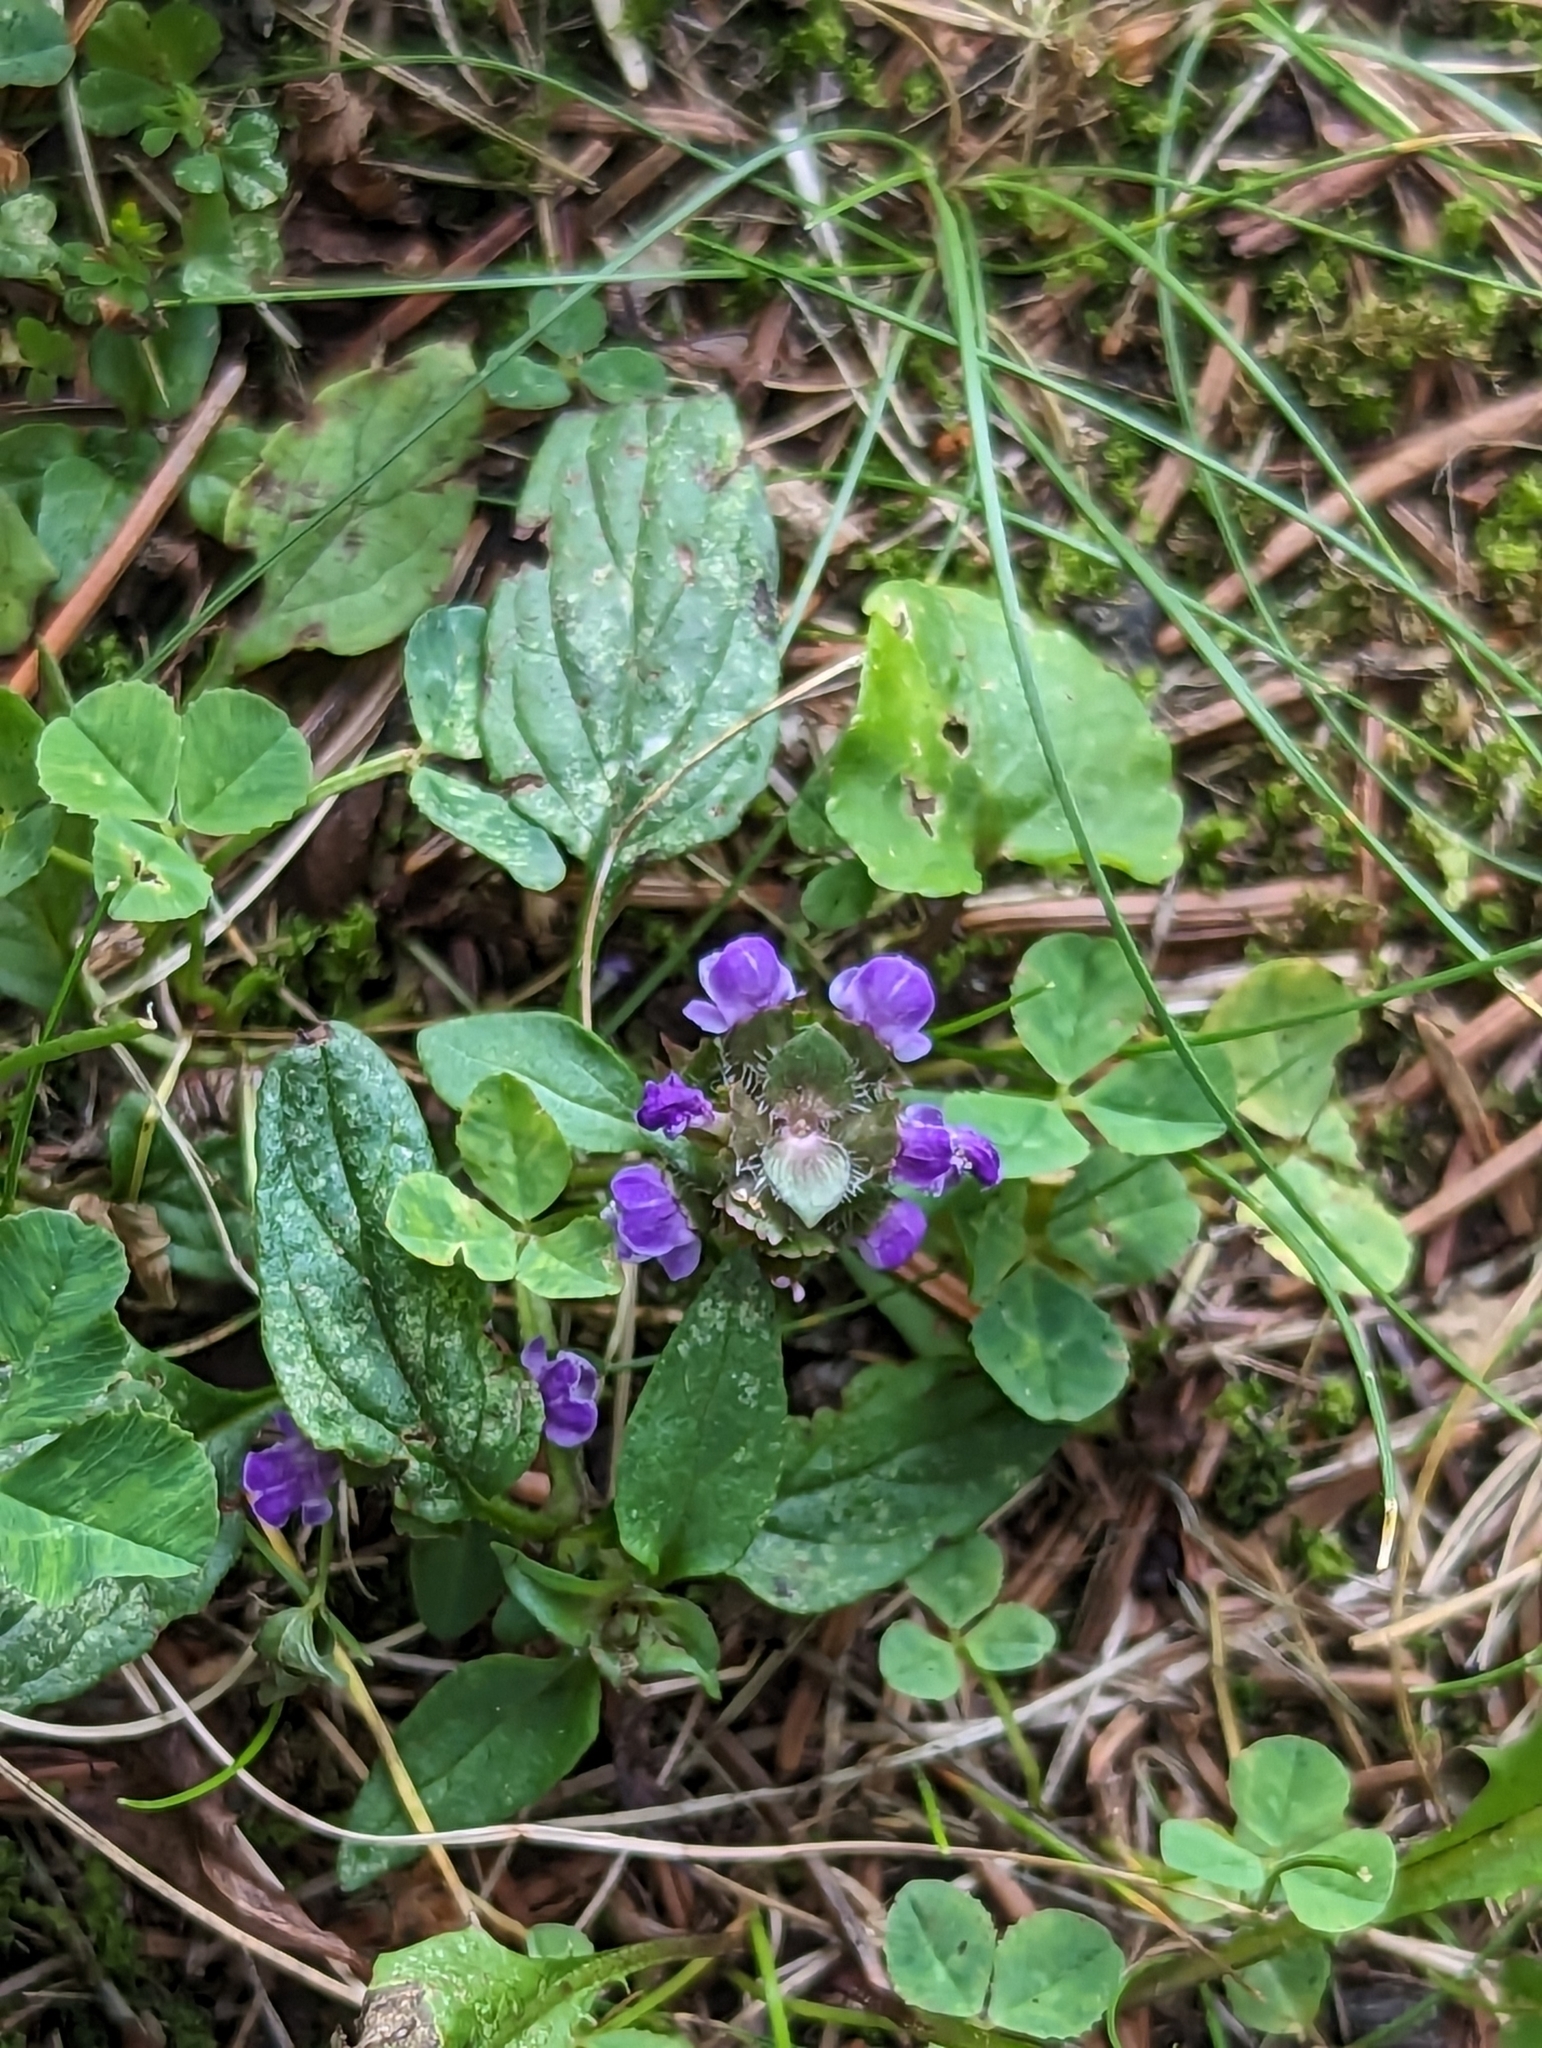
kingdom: Plantae
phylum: Tracheophyta
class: Magnoliopsida
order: Lamiales
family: Lamiaceae
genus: Prunella
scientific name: Prunella vulgaris
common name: Heal-all
